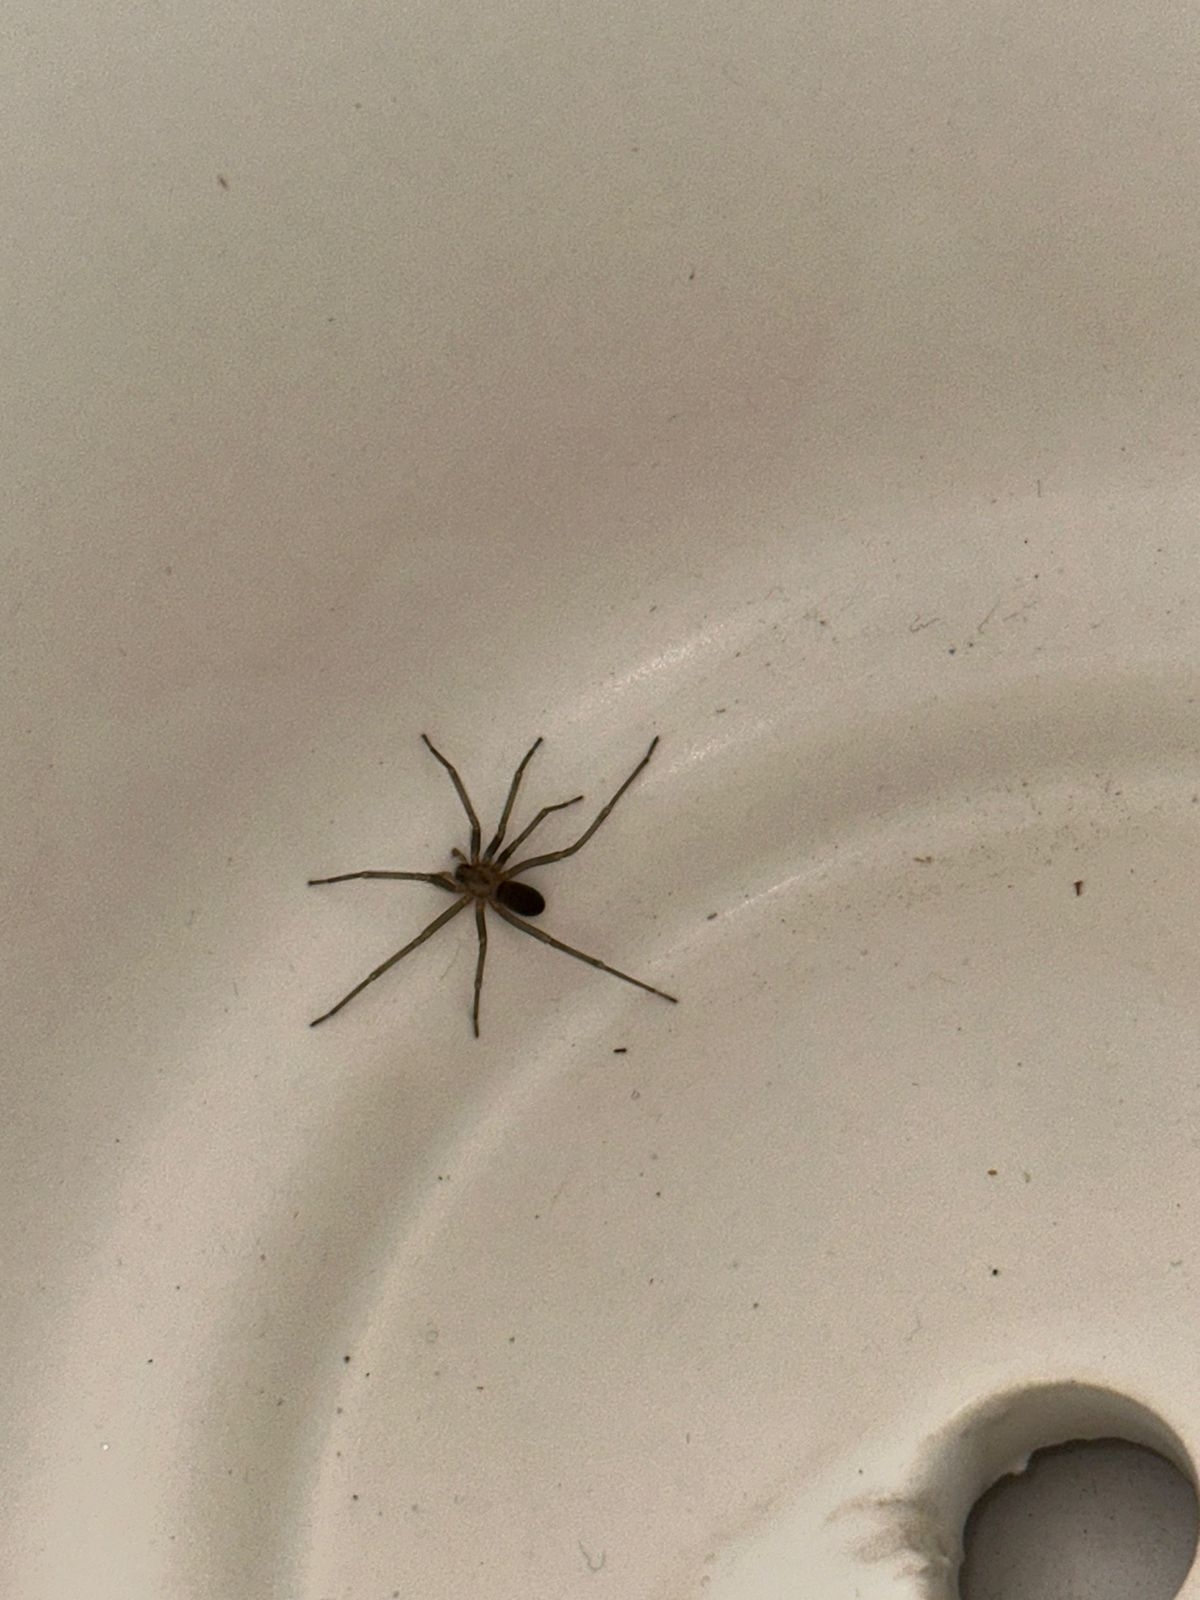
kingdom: Animalia
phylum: Arthropoda
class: Arachnida
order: Araneae
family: Sicariidae
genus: Loxosceles
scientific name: Loxosceles laeta
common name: Chilean recluse spider
